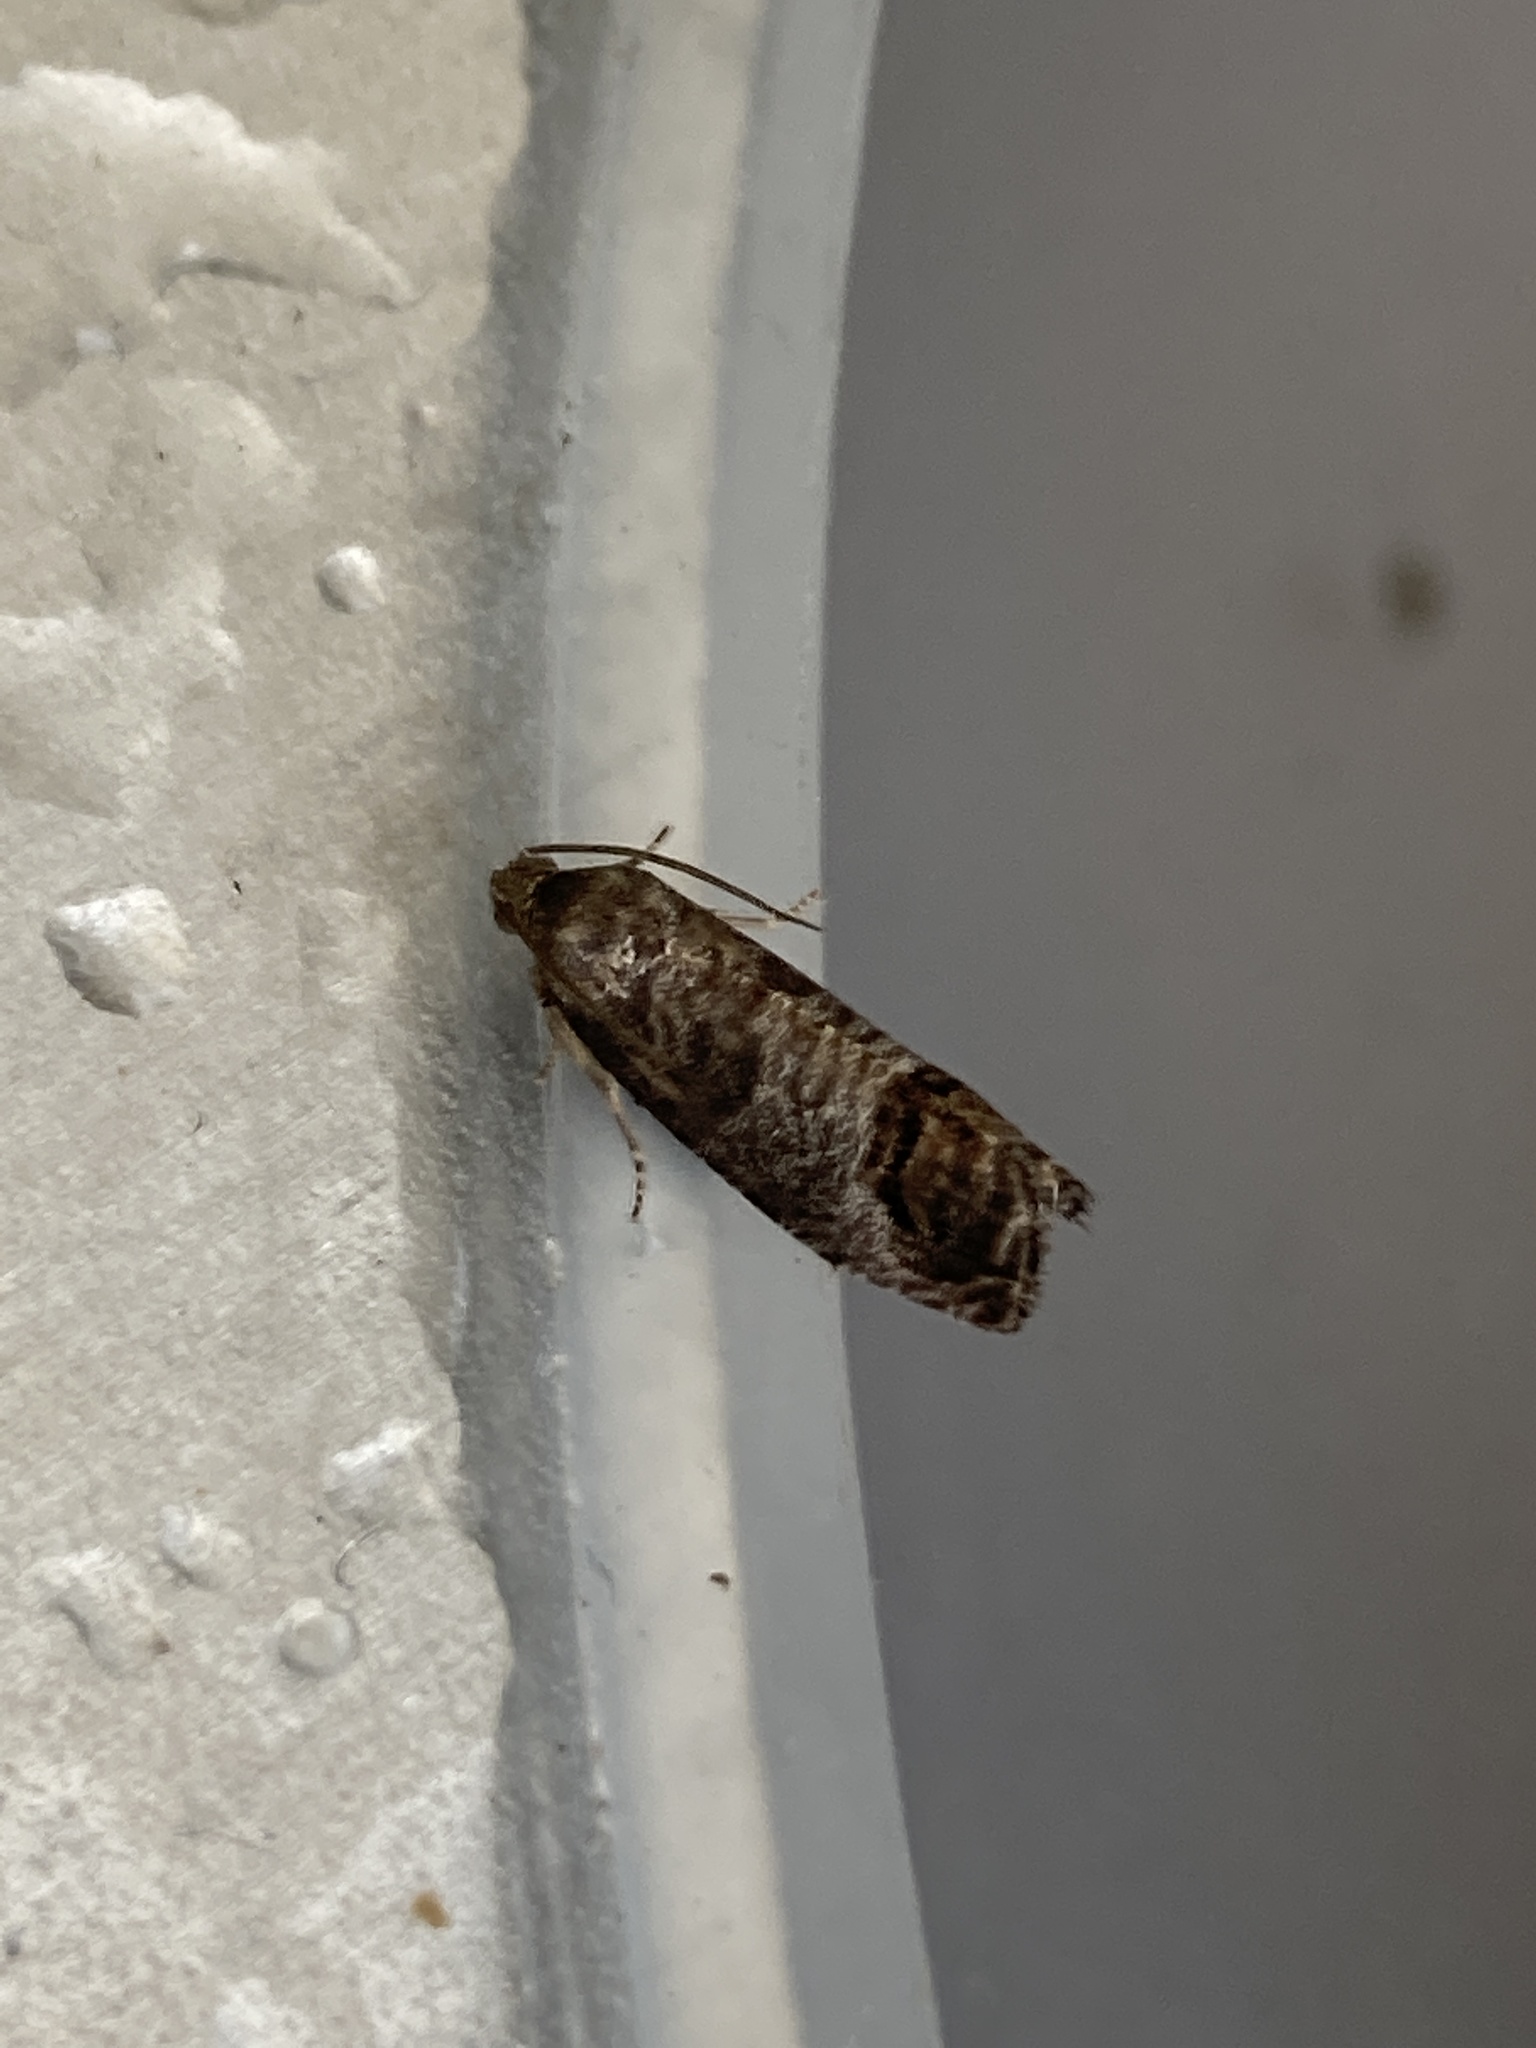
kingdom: Animalia
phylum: Arthropoda
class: Insecta
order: Lepidoptera
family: Tortricidae
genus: Cydia
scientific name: Cydia pomonella
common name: Codling moth
